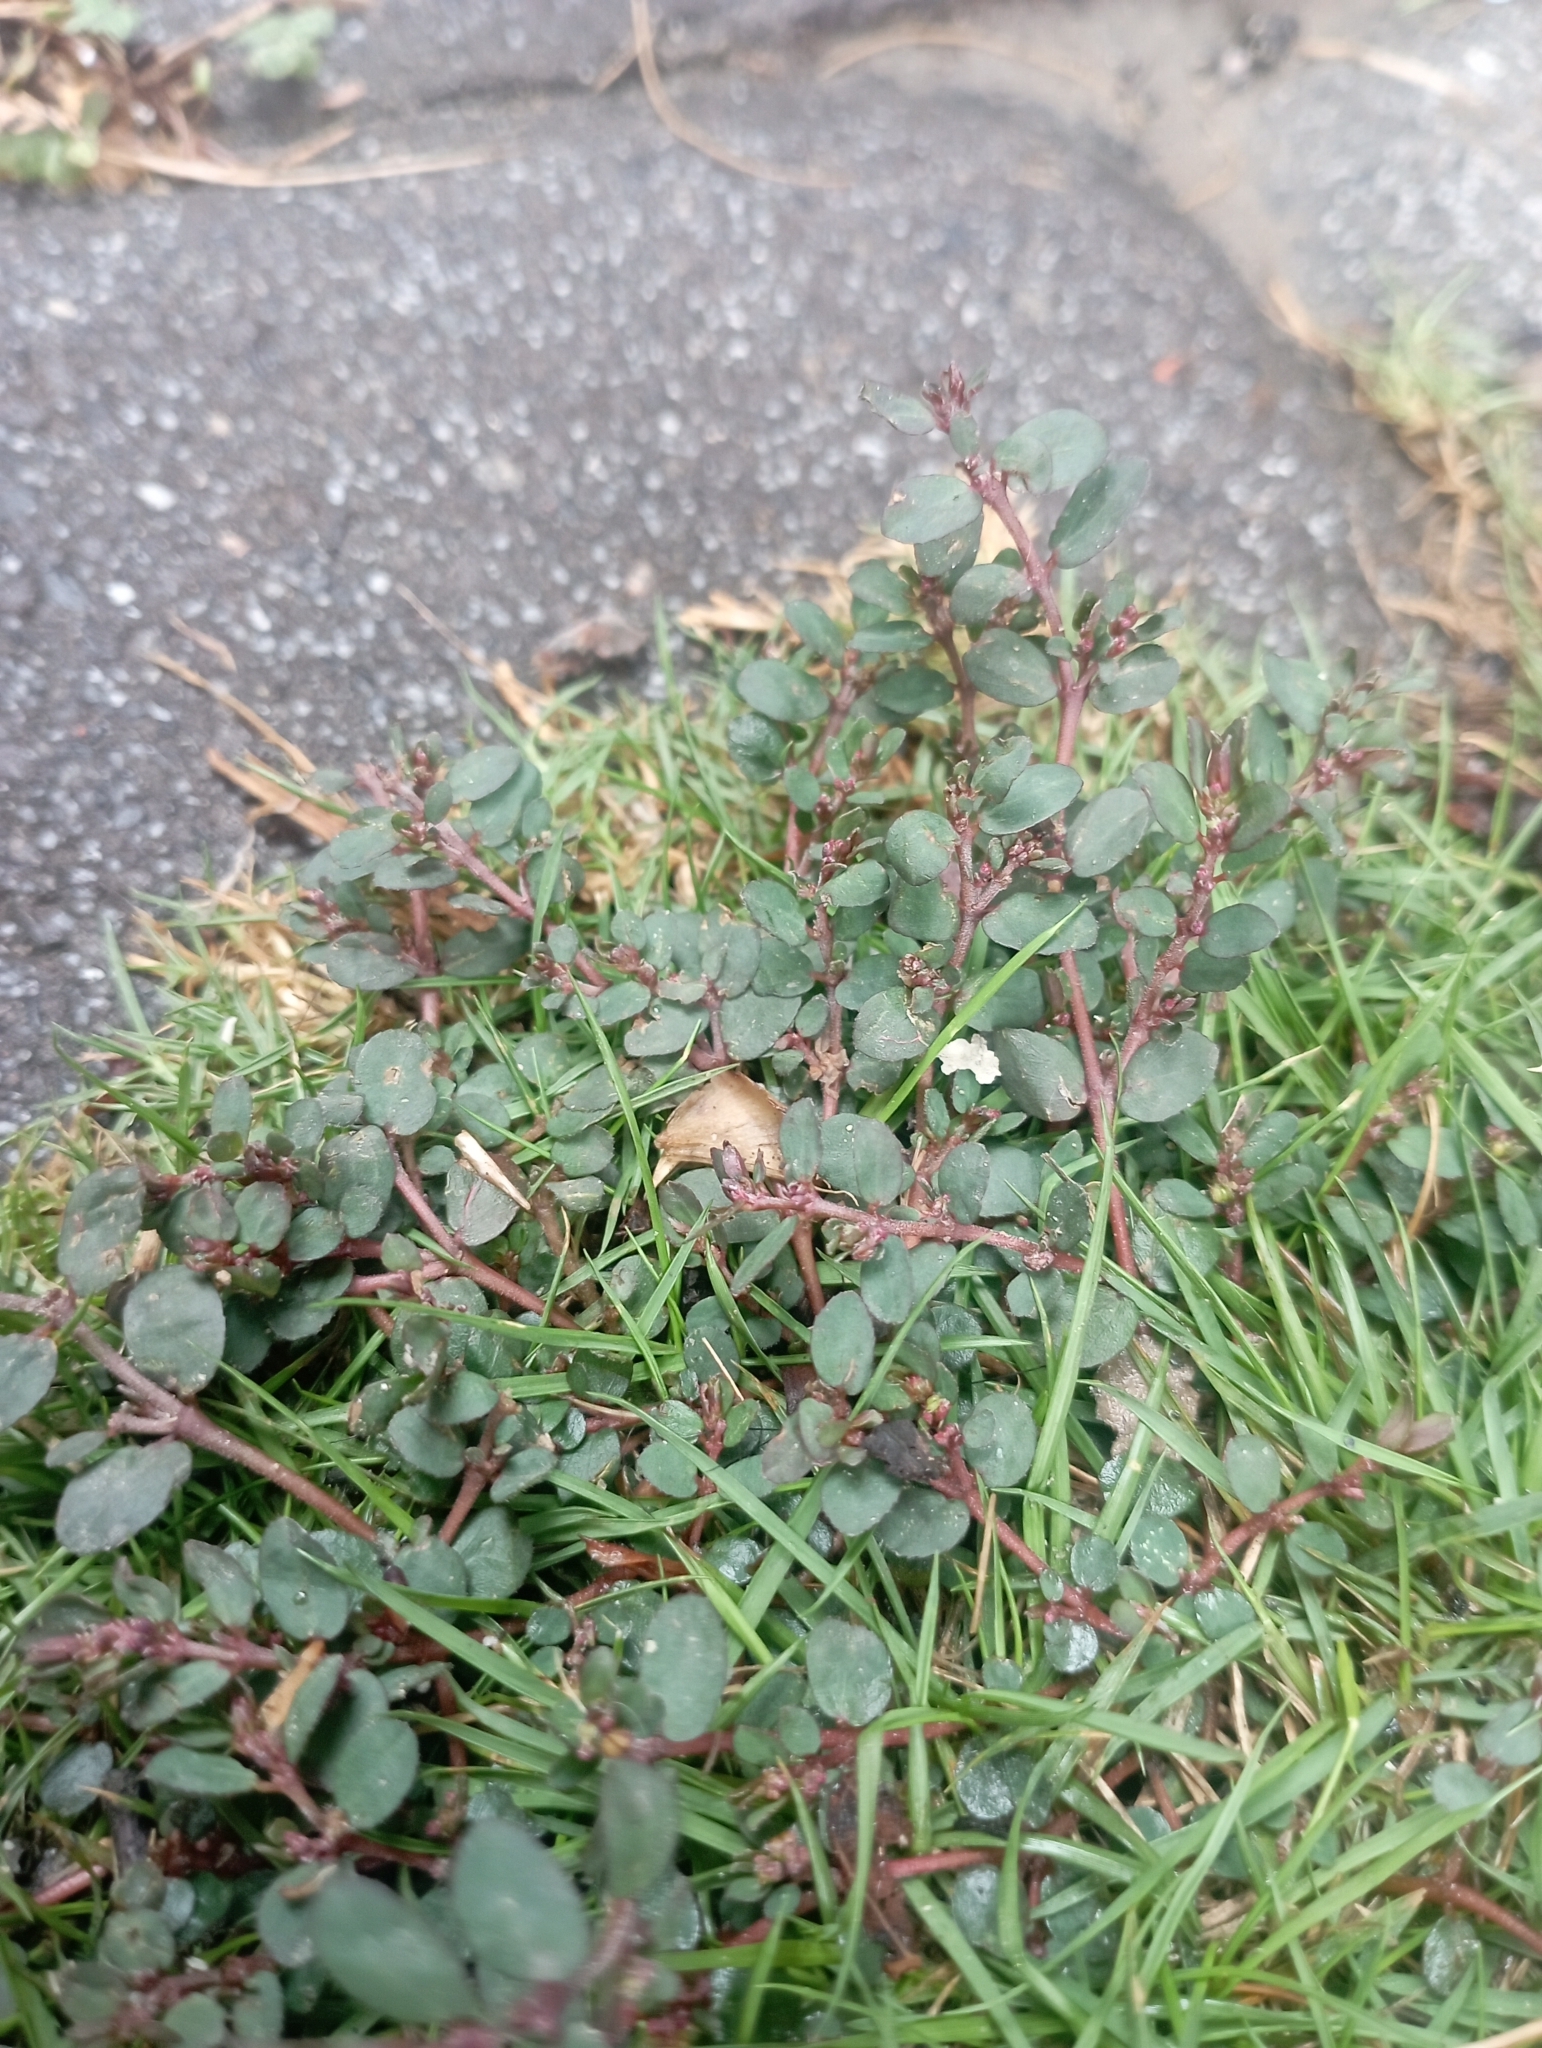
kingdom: Plantae
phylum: Tracheophyta
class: Magnoliopsida
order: Malpighiales
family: Euphorbiaceae
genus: Euphorbia
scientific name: Euphorbia prostrata
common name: Prostrate sandmat
